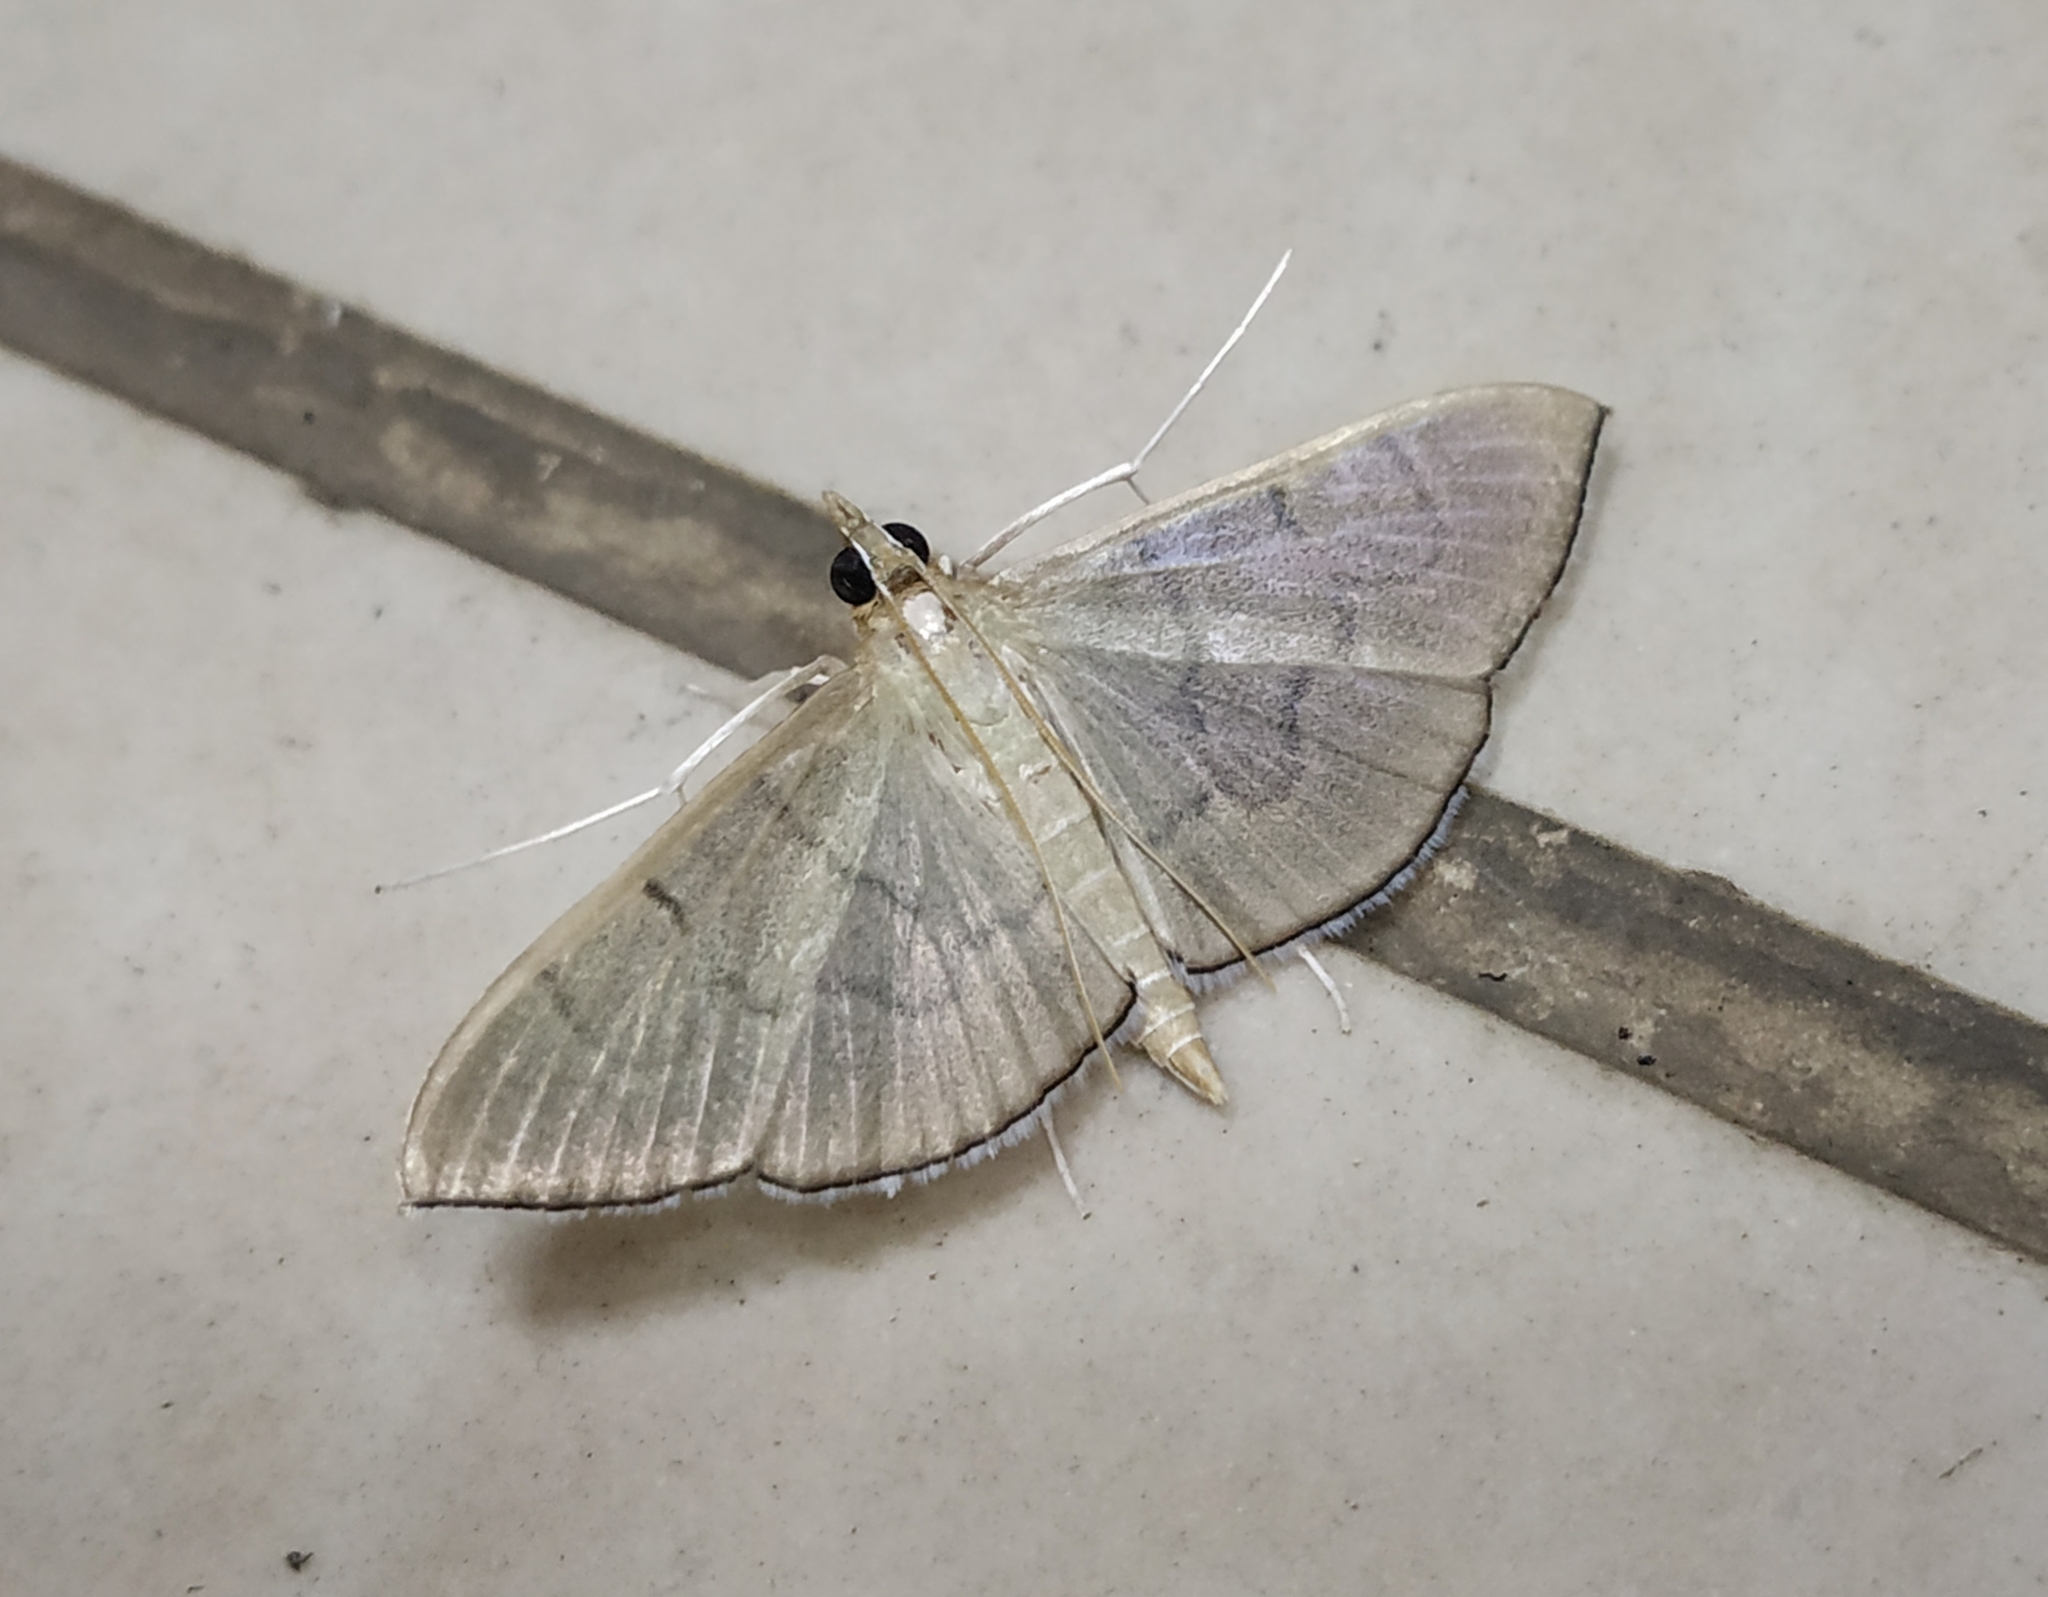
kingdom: Animalia
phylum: Arthropoda
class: Insecta
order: Lepidoptera
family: Crambidae
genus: Lamprophaia
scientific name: Lamprophaia ablactalis
